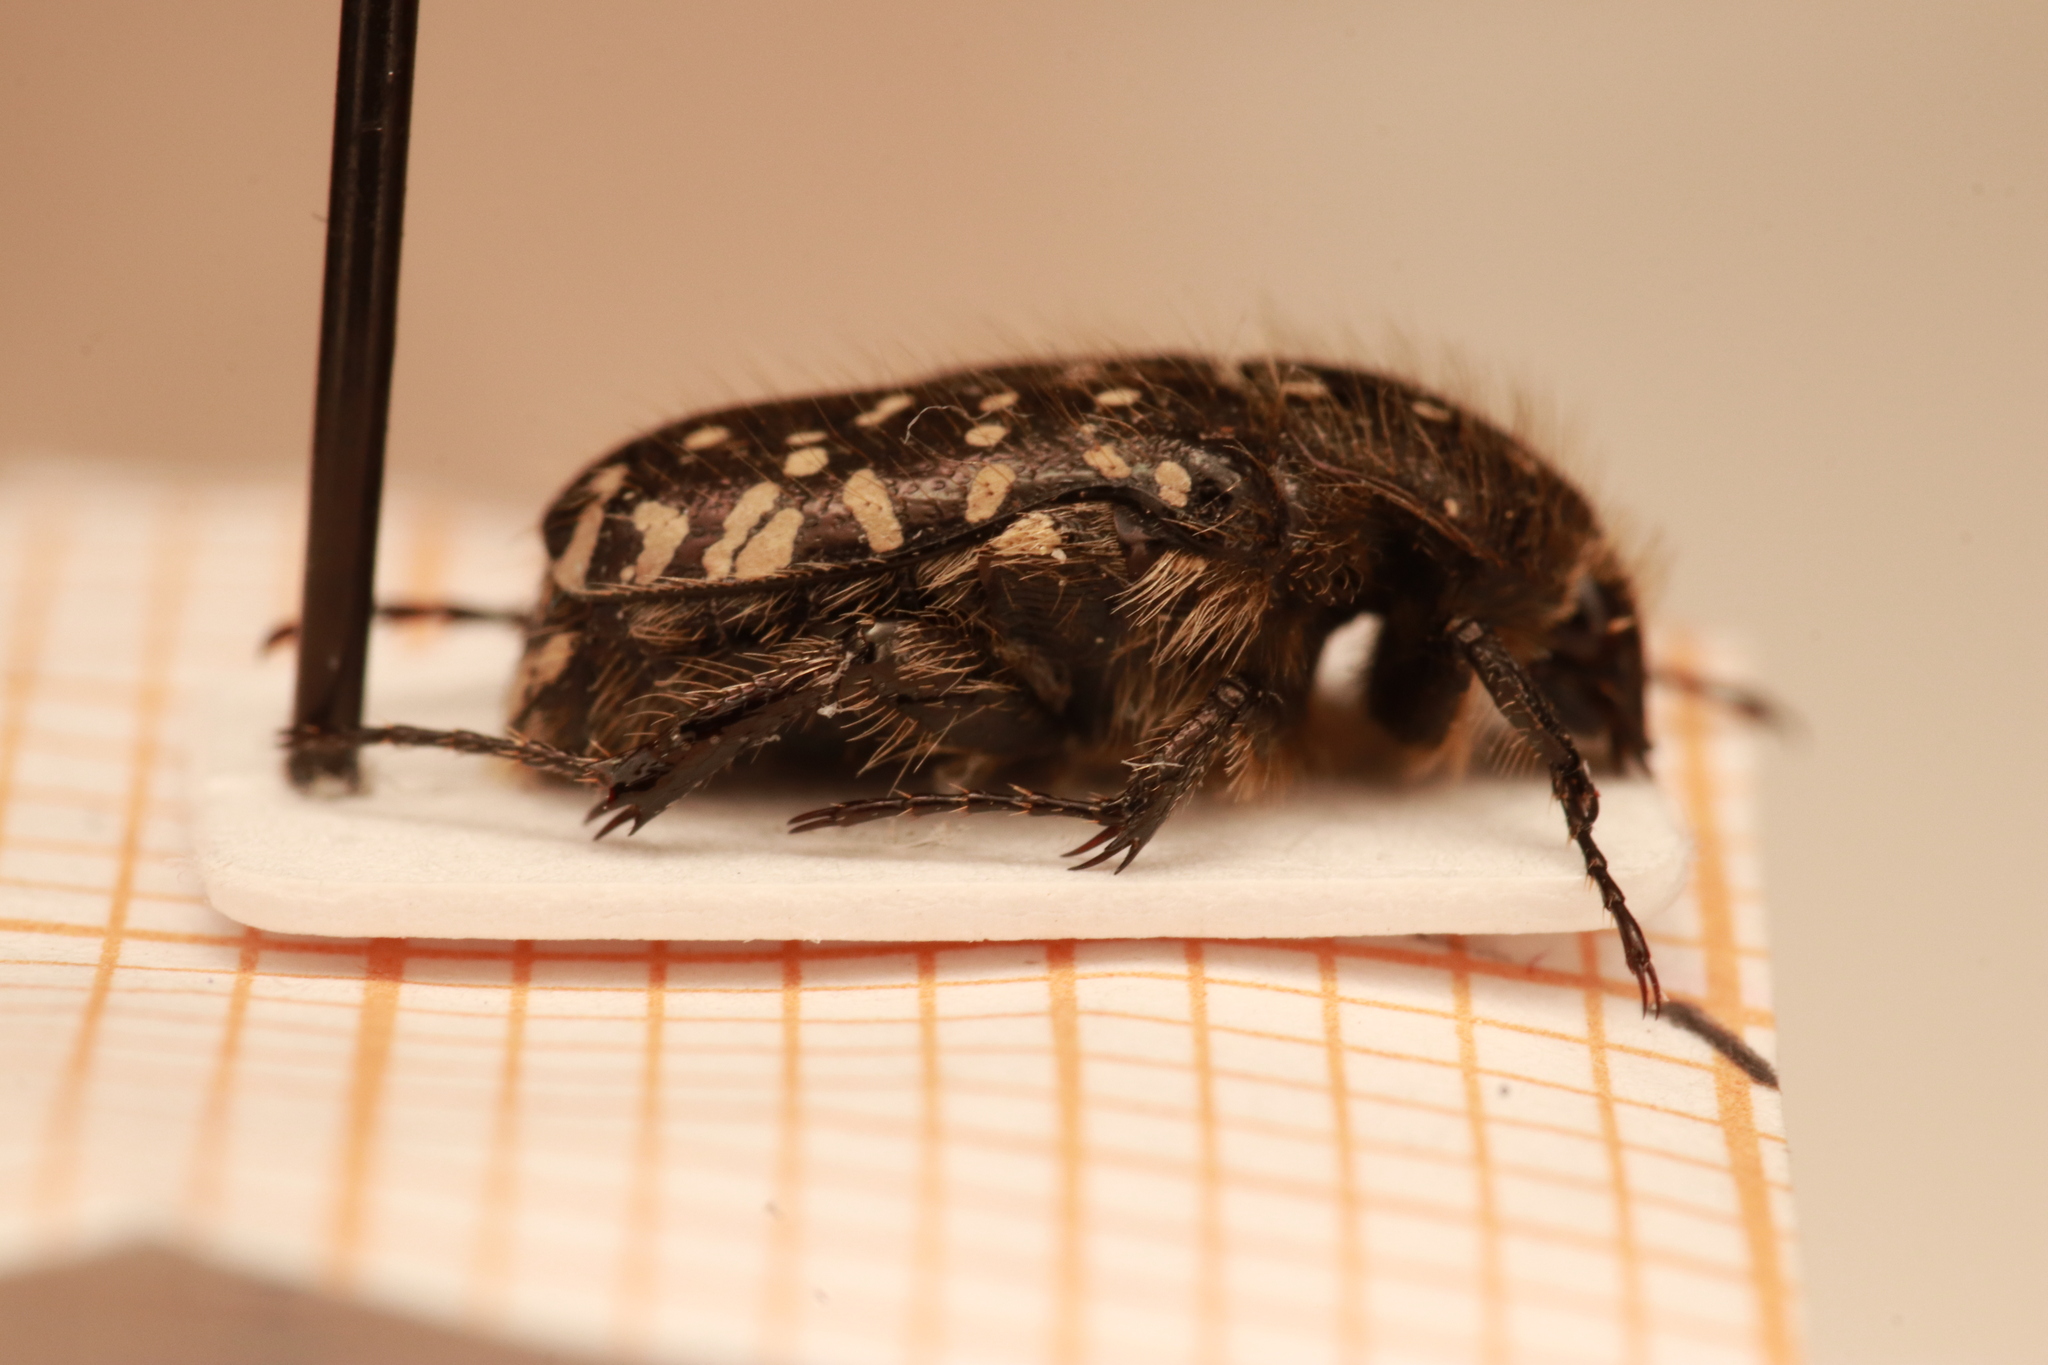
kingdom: Animalia
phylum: Arthropoda
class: Insecta
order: Coleoptera
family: Scarabaeidae
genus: Oxythyrea
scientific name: Oxythyrea funesta
